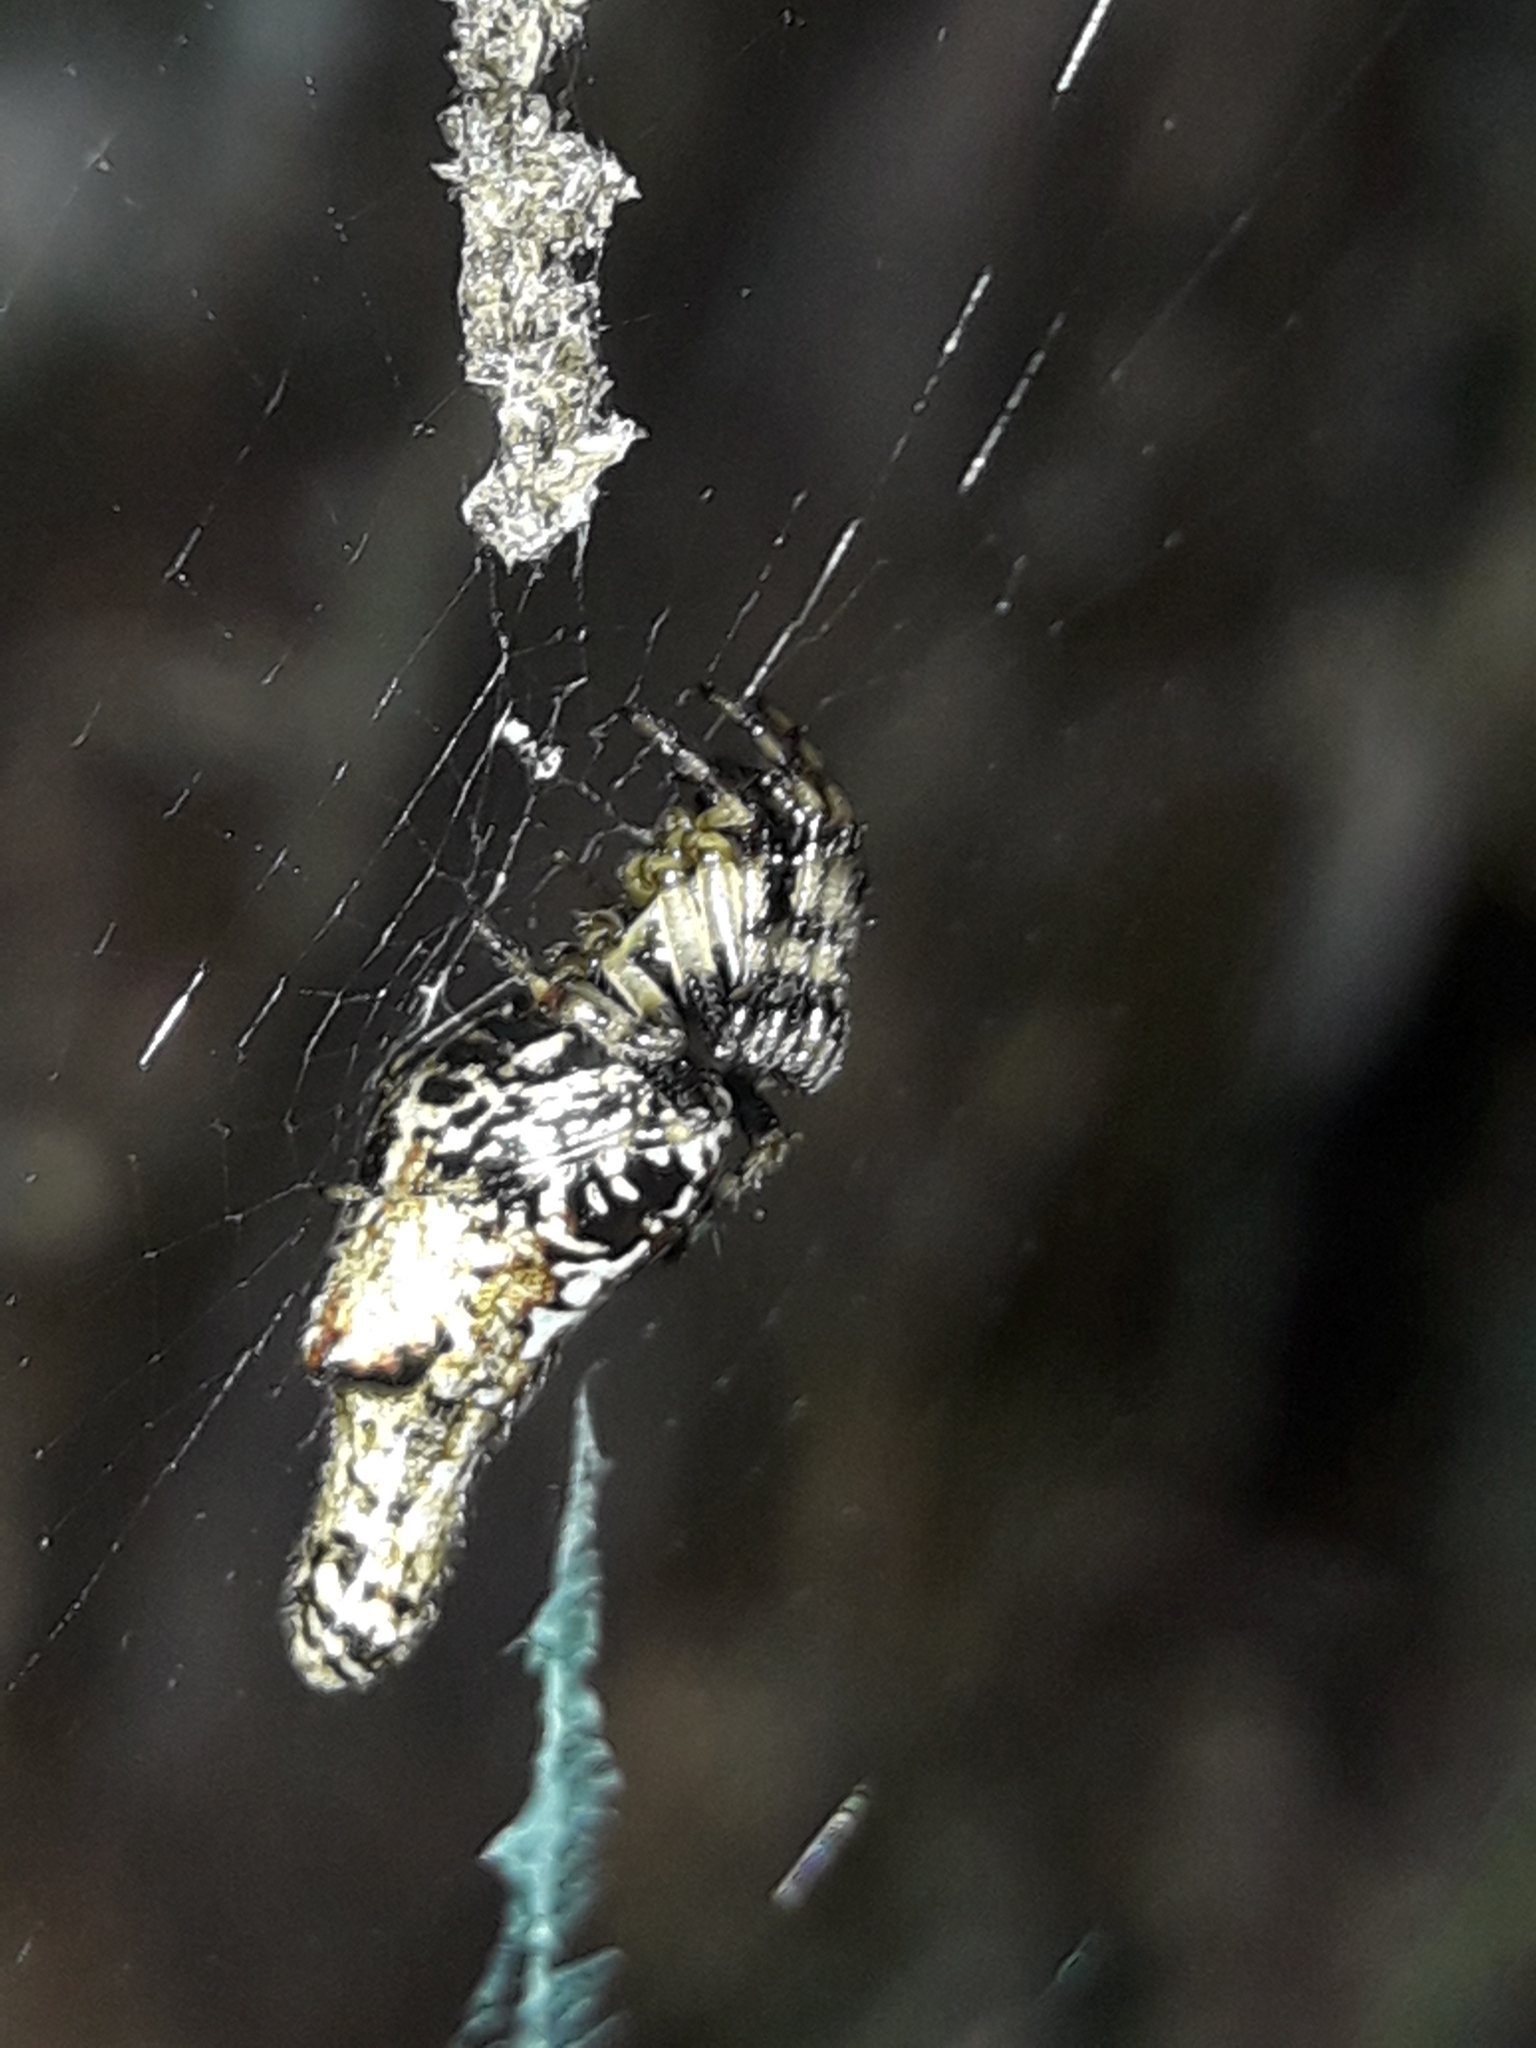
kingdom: Animalia
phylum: Arthropoda
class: Arachnida
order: Araneae
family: Araneidae
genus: Cyclosa
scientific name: Cyclosa trilobata
